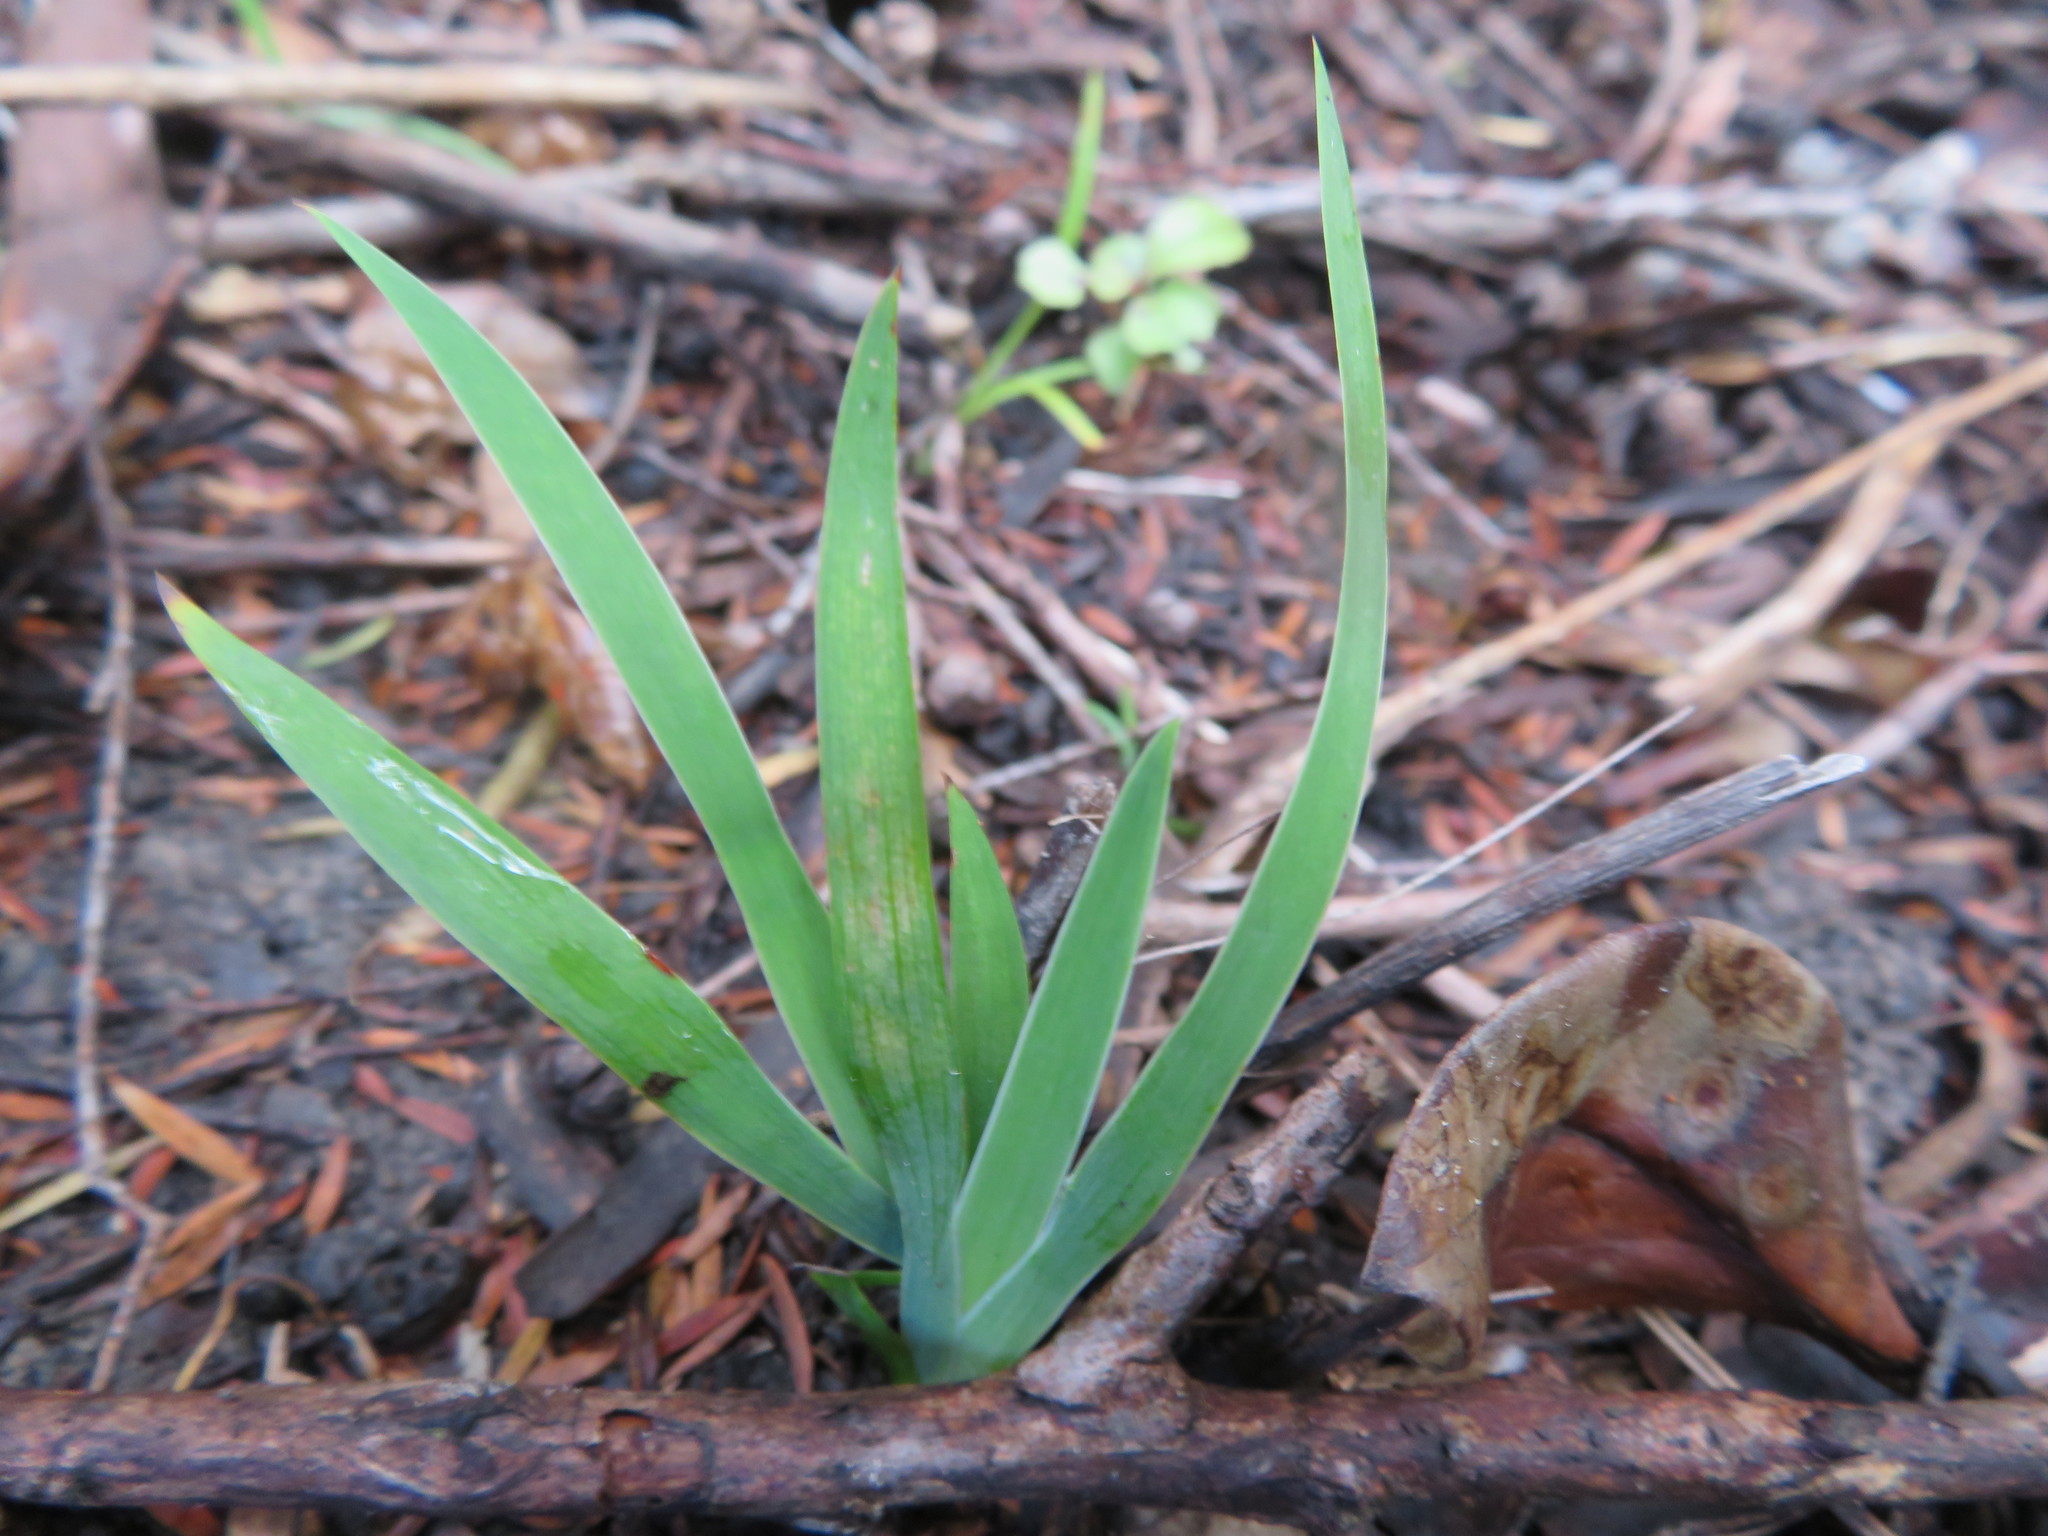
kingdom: Plantae
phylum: Tracheophyta
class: Liliopsida
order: Asparagales
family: Iridaceae
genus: Aristea
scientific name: Aristea ecklonii
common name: Blue corn-lily
